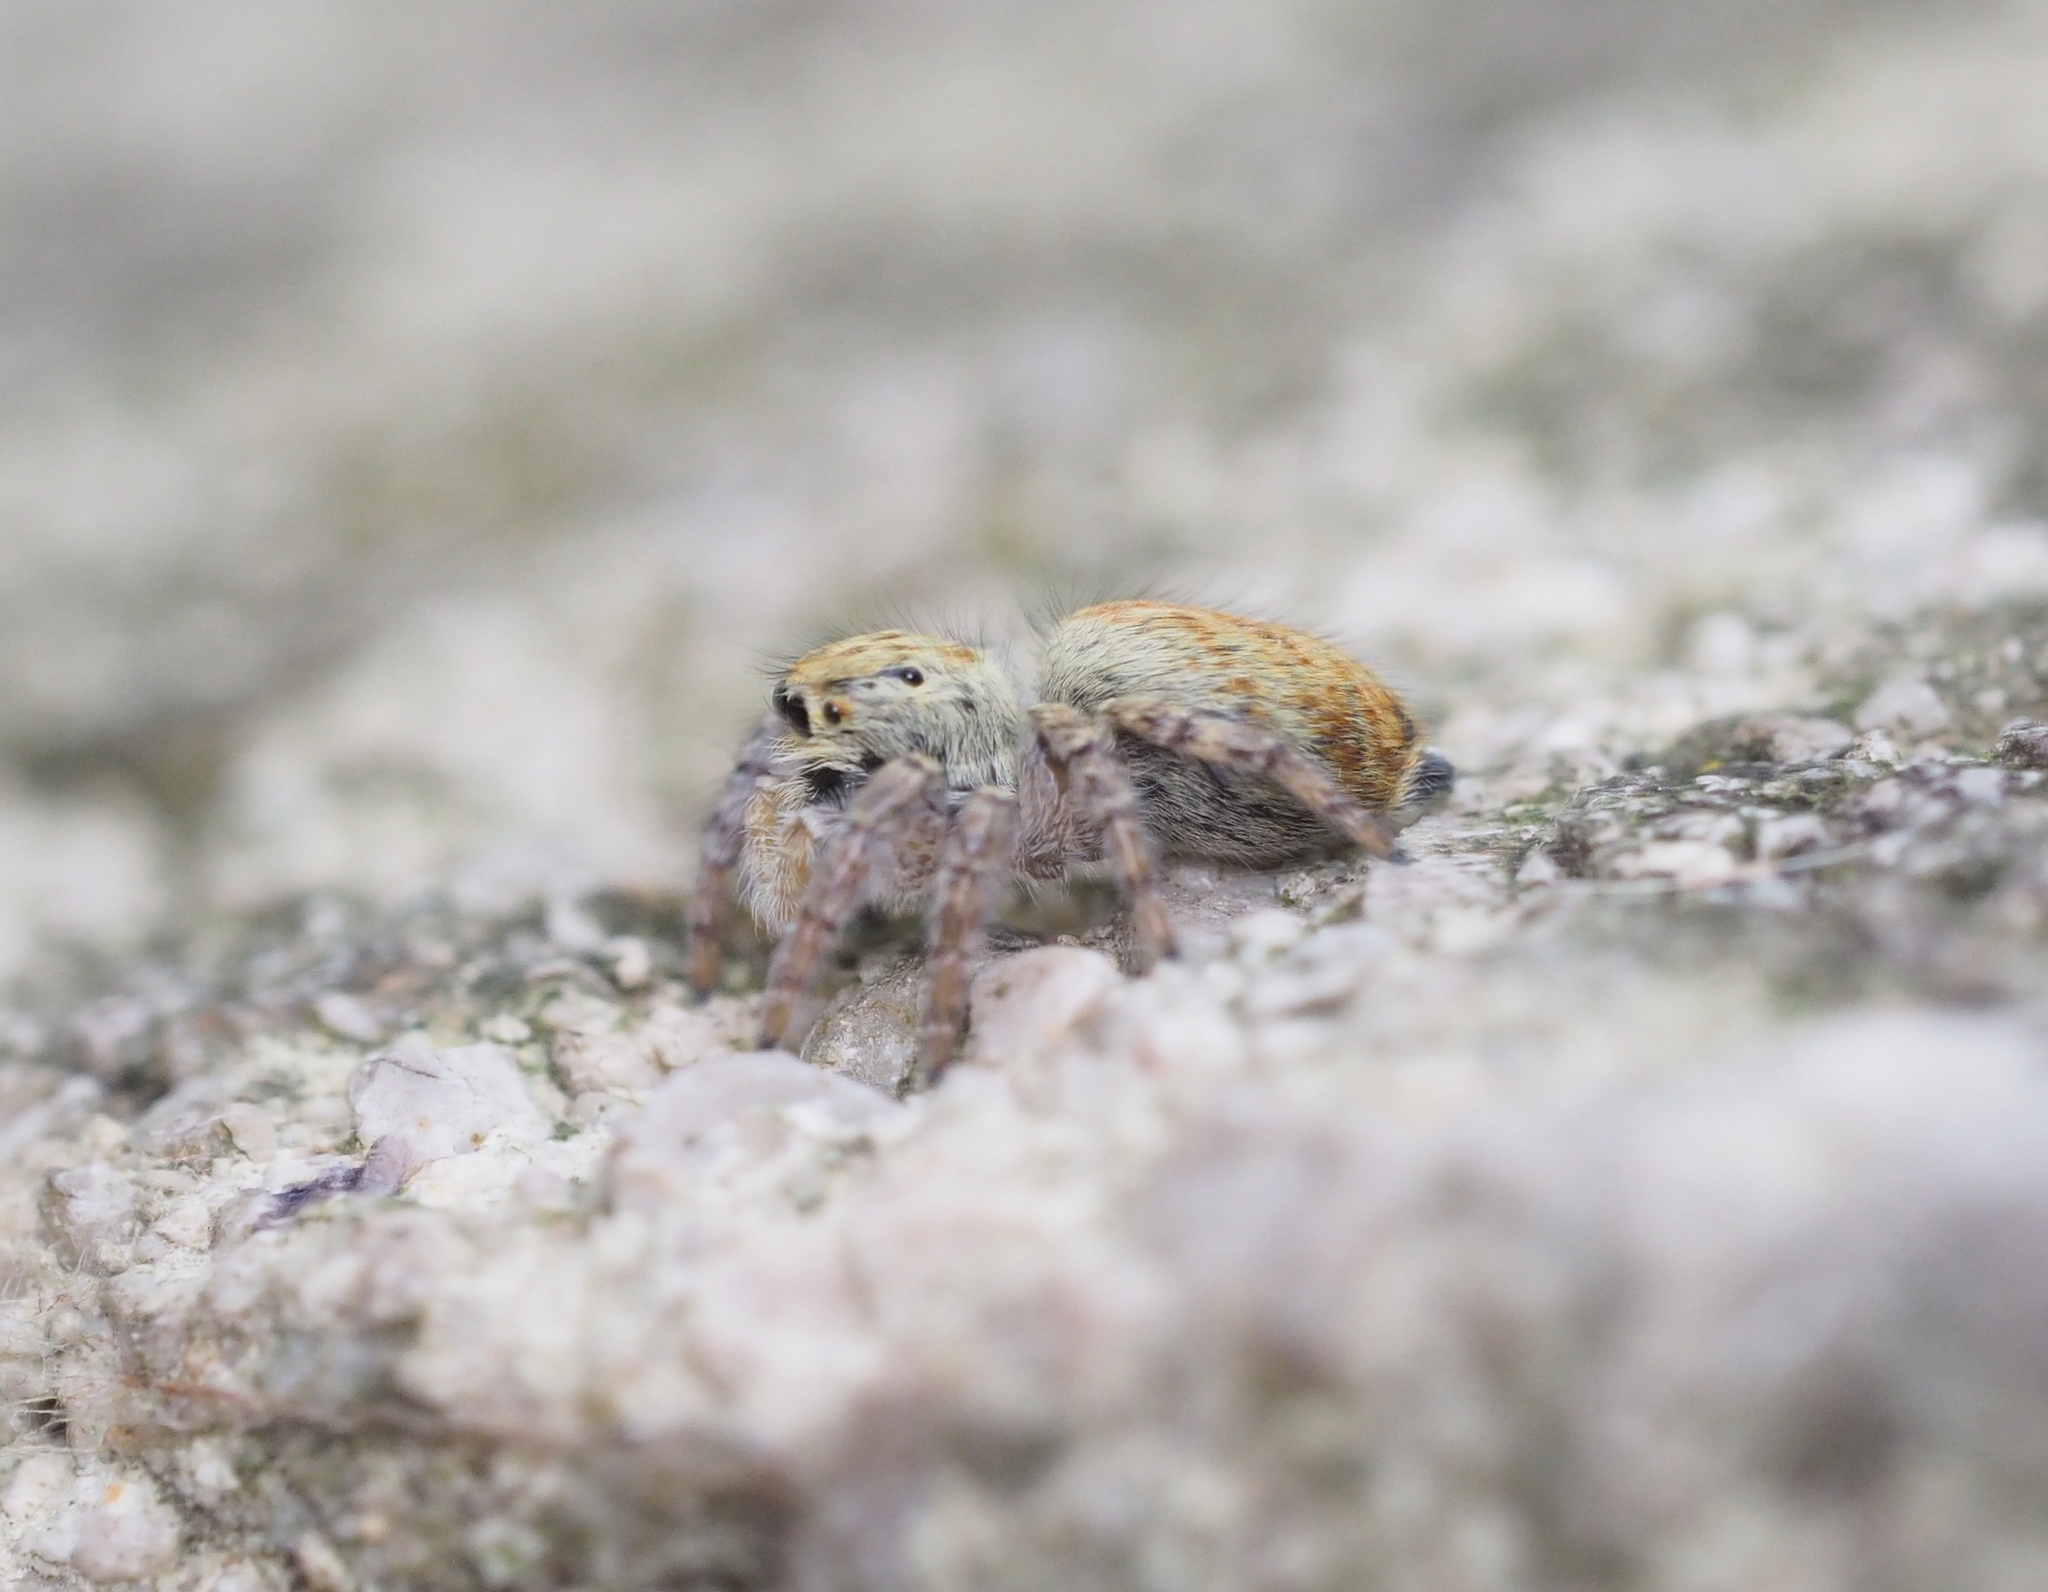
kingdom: Animalia
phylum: Arthropoda
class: Arachnida
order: Araneae
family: Salticidae
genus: Carrhotus
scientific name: Carrhotus xanthogramma
